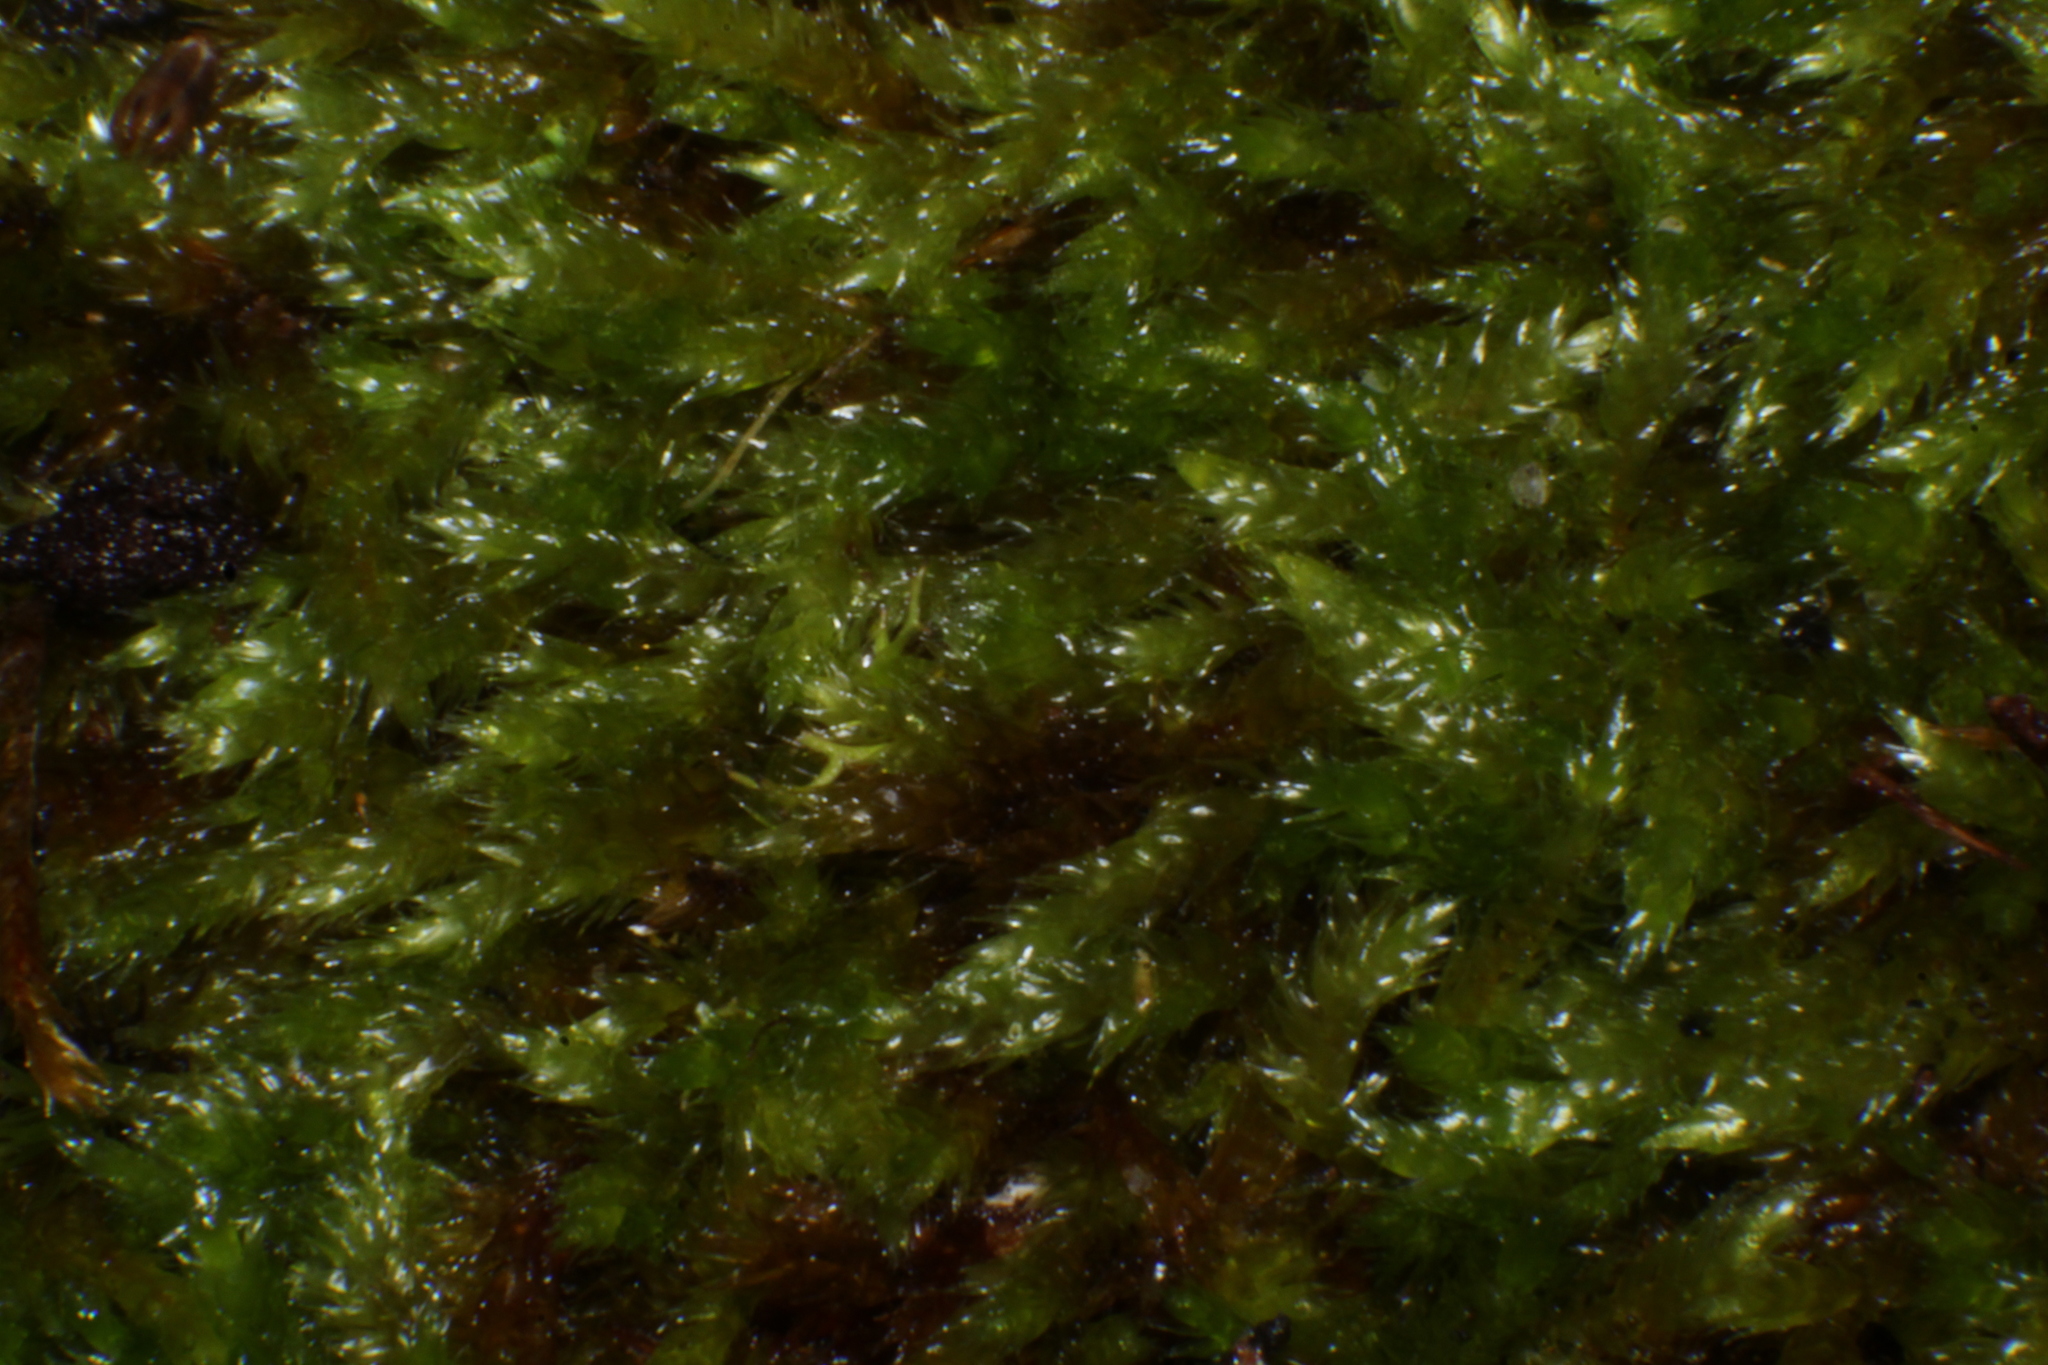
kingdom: Plantae
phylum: Bryophyta
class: Bryopsida
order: Hypnales
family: Sematophyllaceae
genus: Sematophyllum
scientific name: Sematophyllum homomallum
